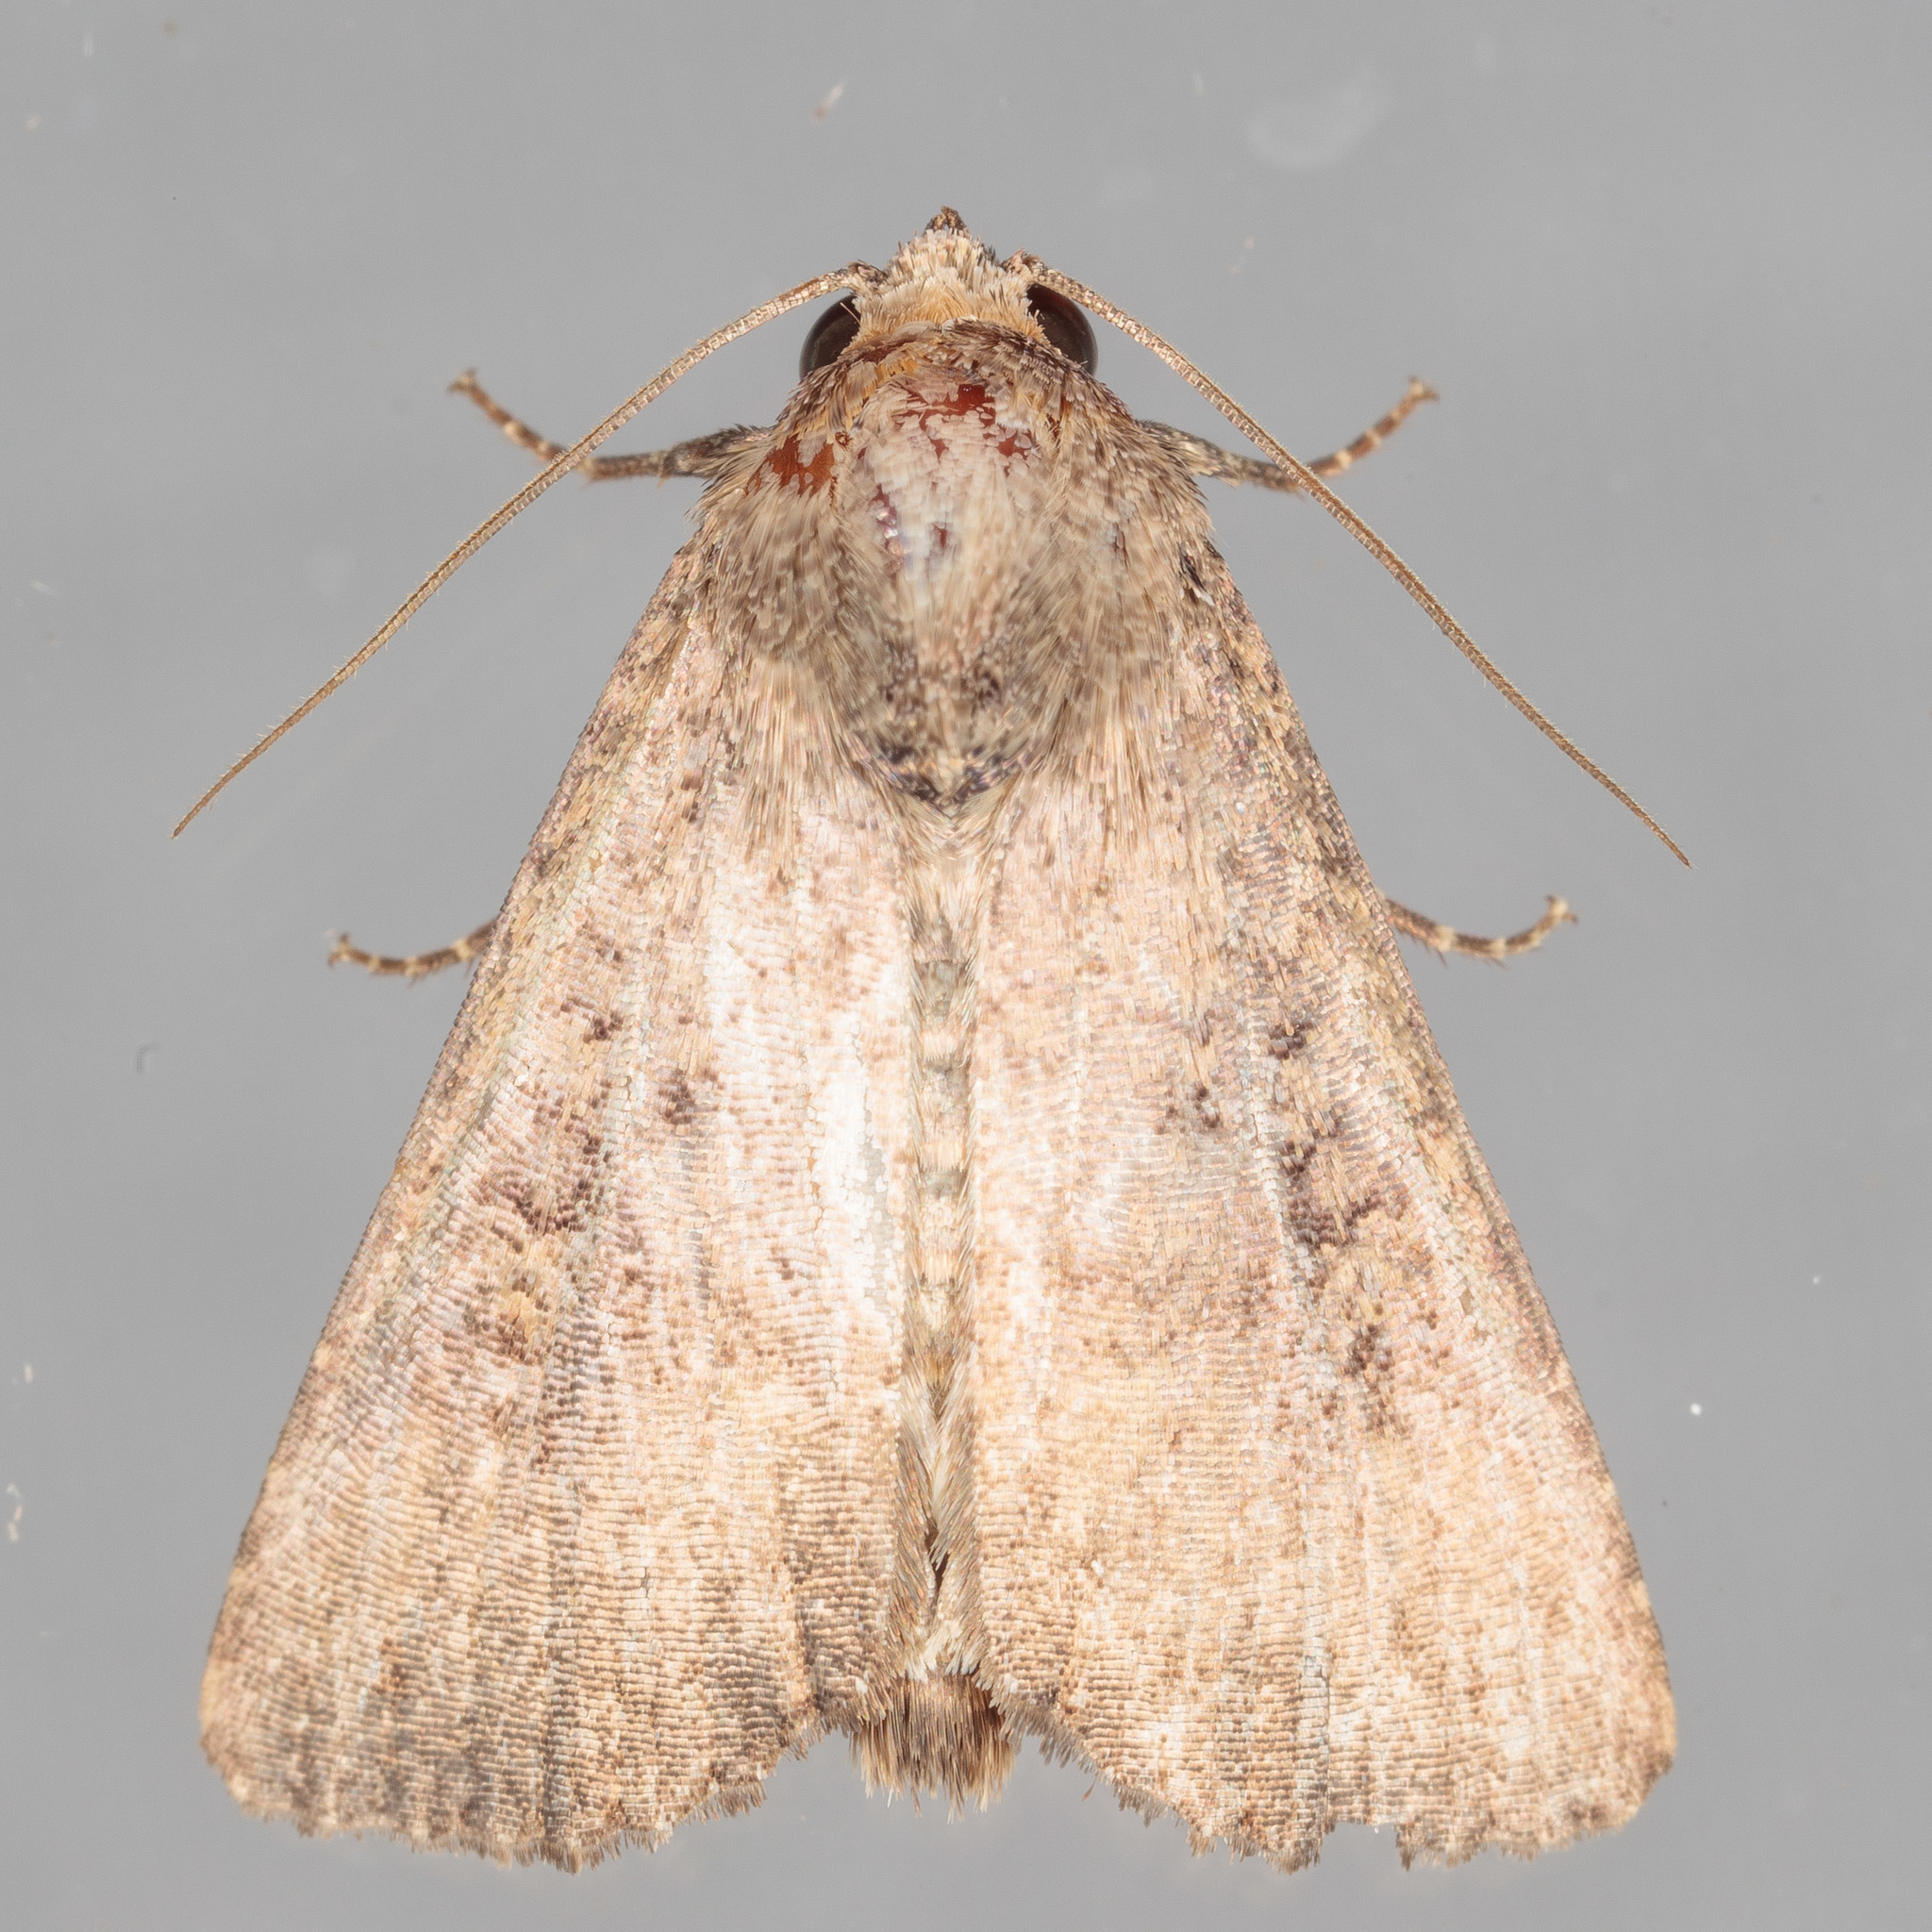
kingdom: Animalia
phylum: Arthropoda
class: Insecta
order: Lepidoptera
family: Noctuidae
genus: Condica
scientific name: Condica sutor
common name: Cobbler moth
